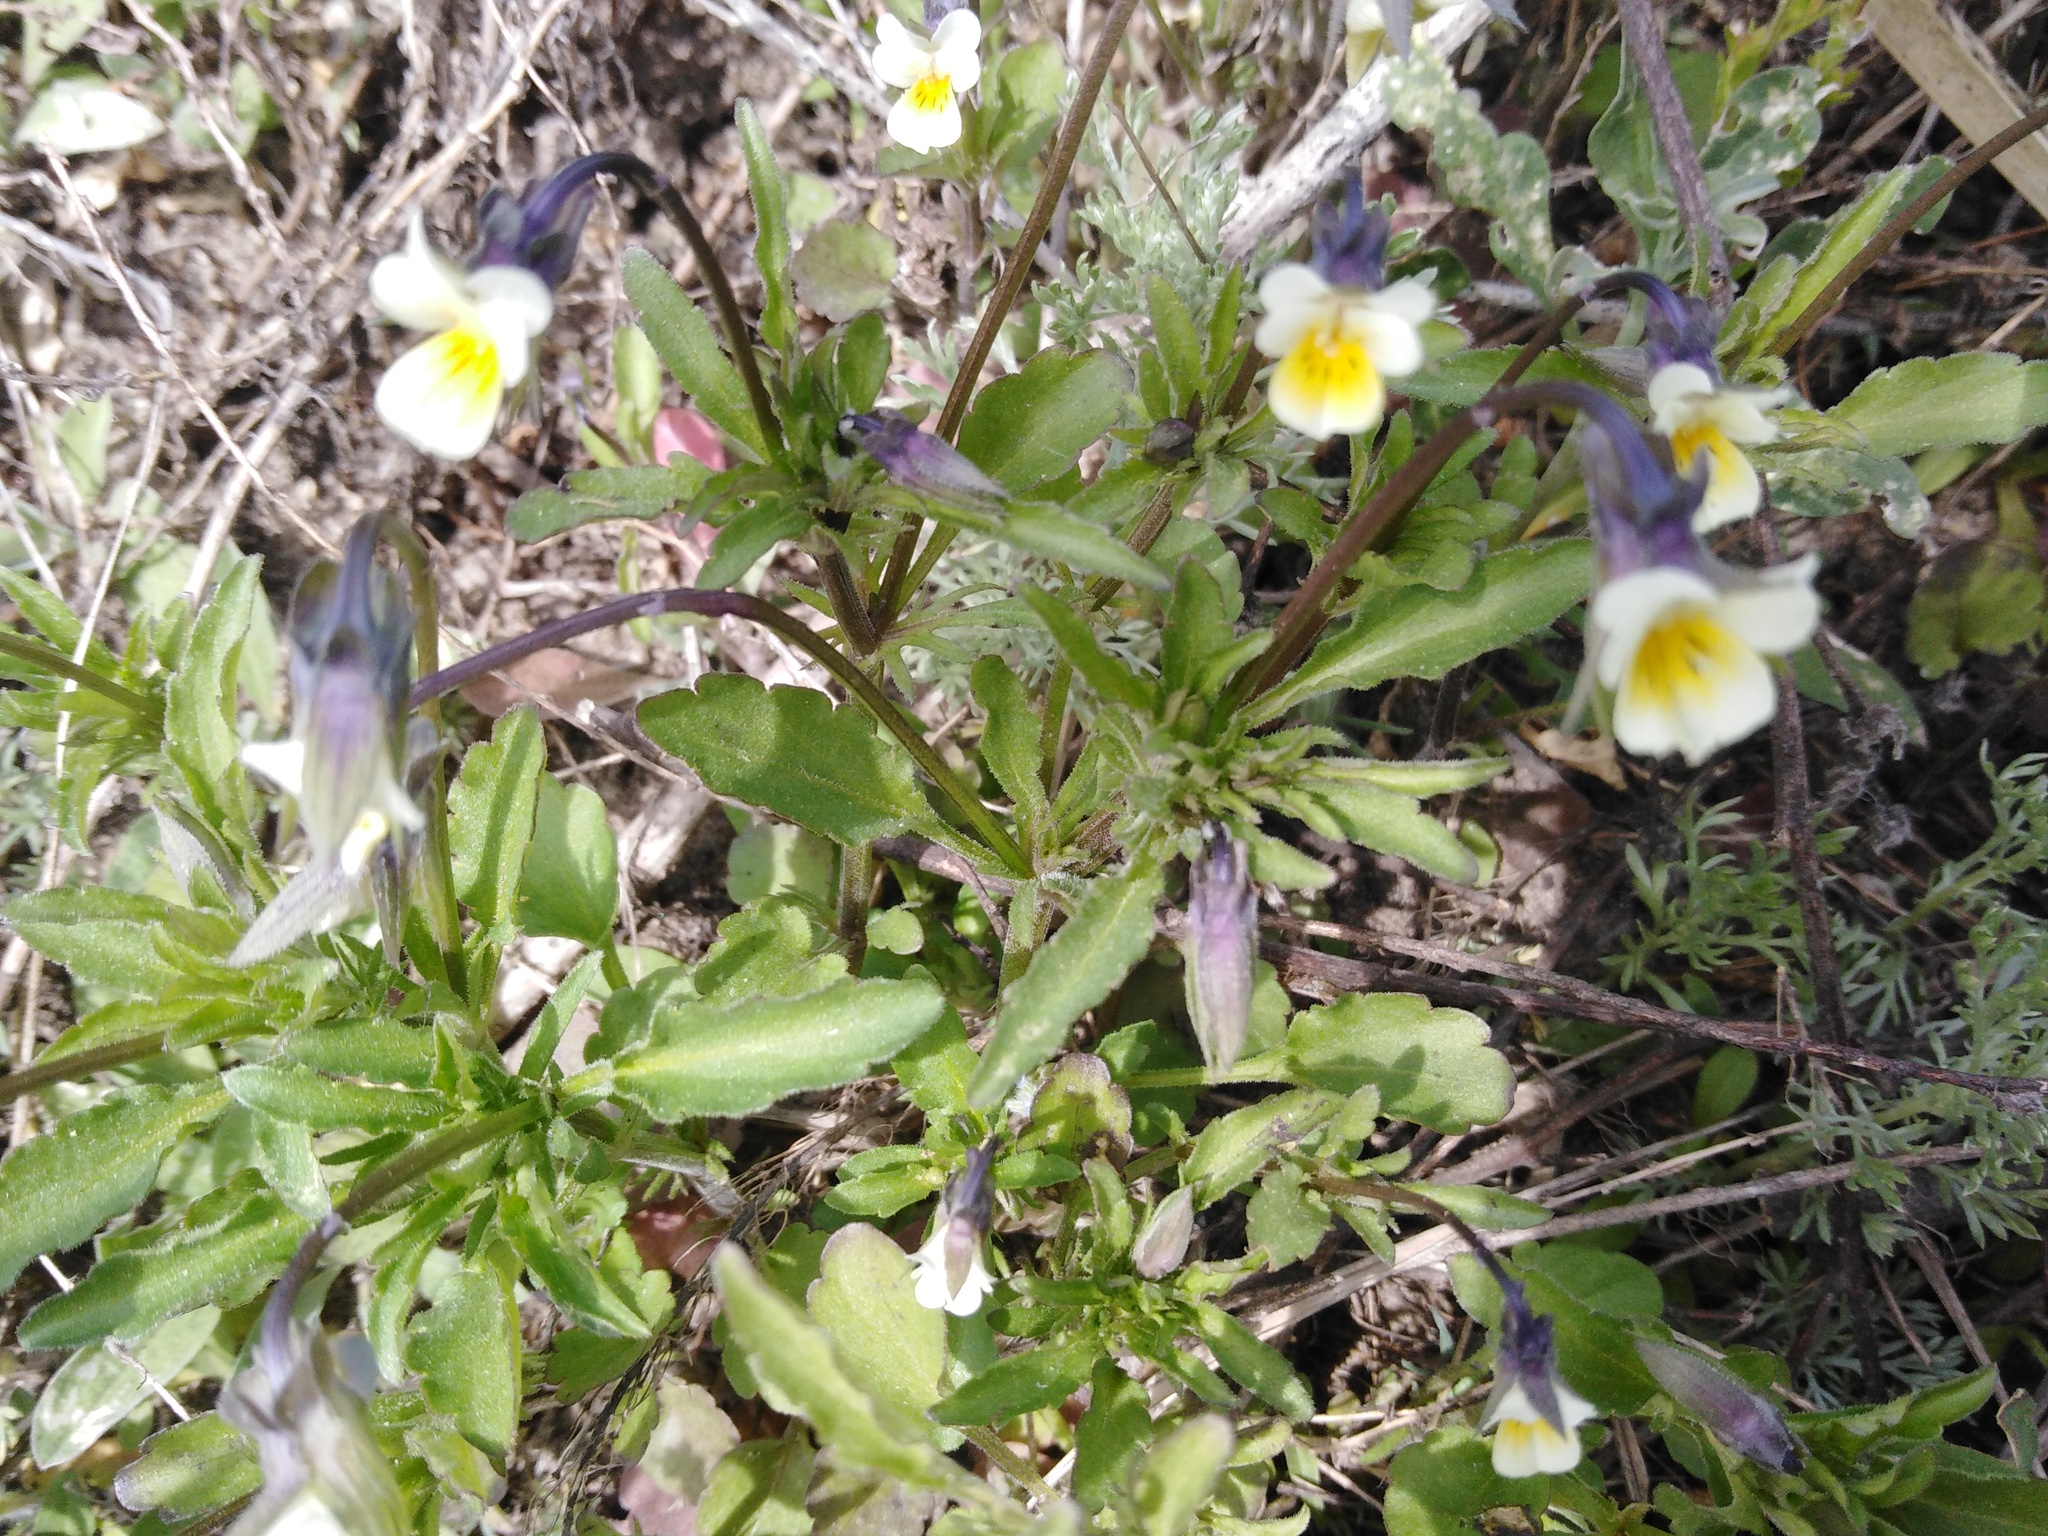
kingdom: Plantae
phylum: Tracheophyta
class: Magnoliopsida
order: Malpighiales
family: Violaceae
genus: Viola
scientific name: Viola arvensis
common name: Field pansy
